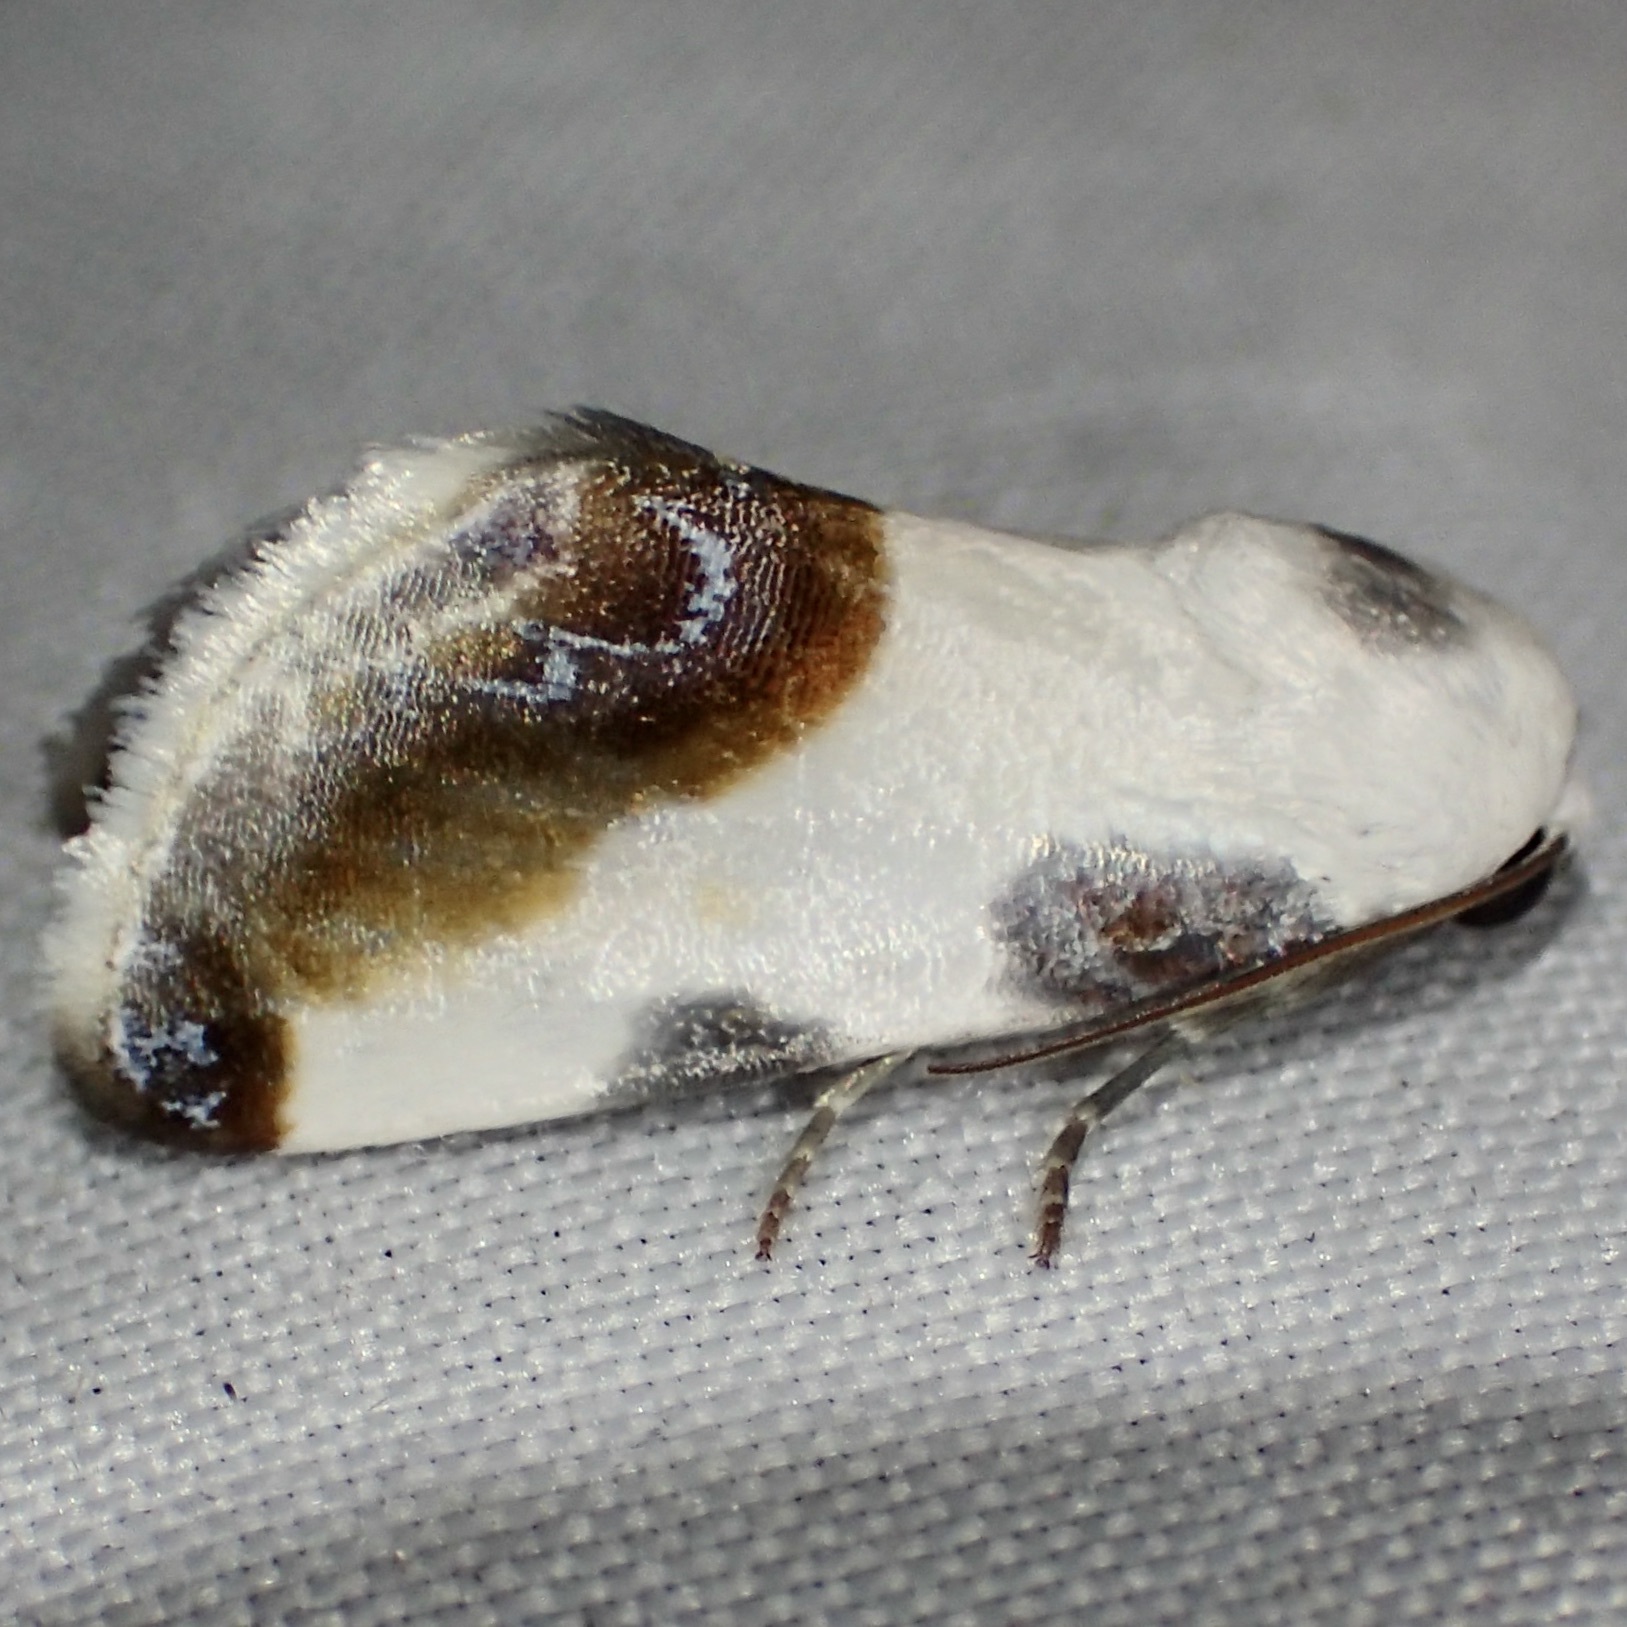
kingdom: Animalia
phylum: Arthropoda
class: Insecta
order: Lepidoptera
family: Noctuidae
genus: Acontia
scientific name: Acontia chea
